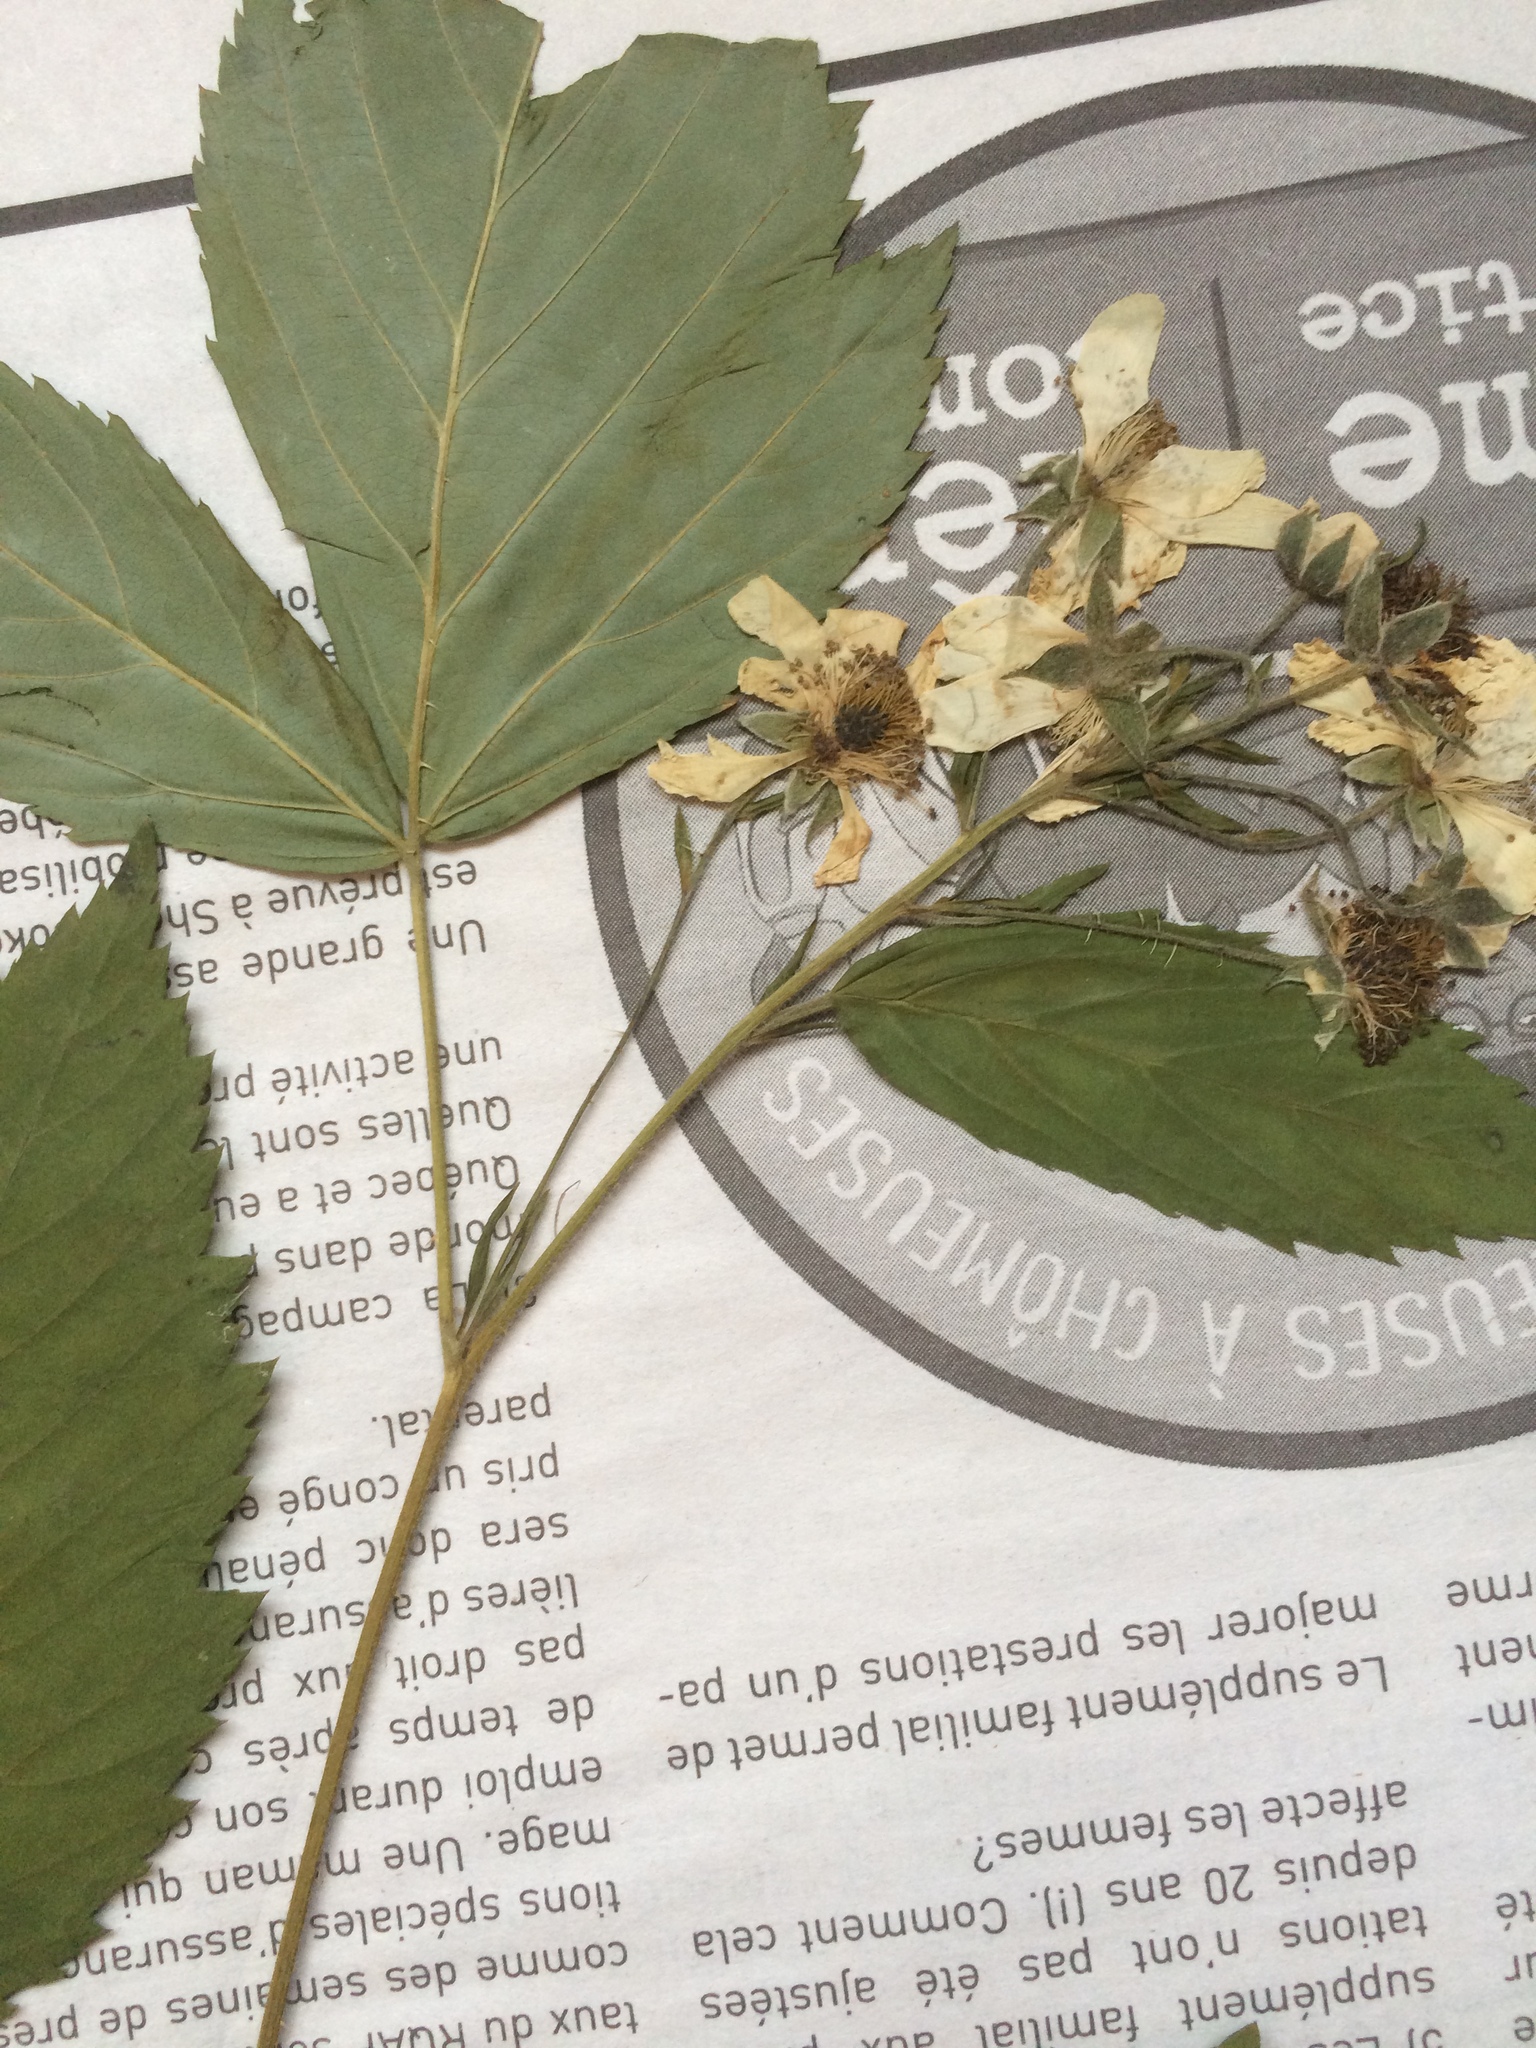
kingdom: Plantae
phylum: Tracheophyta
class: Magnoliopsida
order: Rosales
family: Rosaceae
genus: Rubus
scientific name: Rubus setosus
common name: Bristly blackberry
